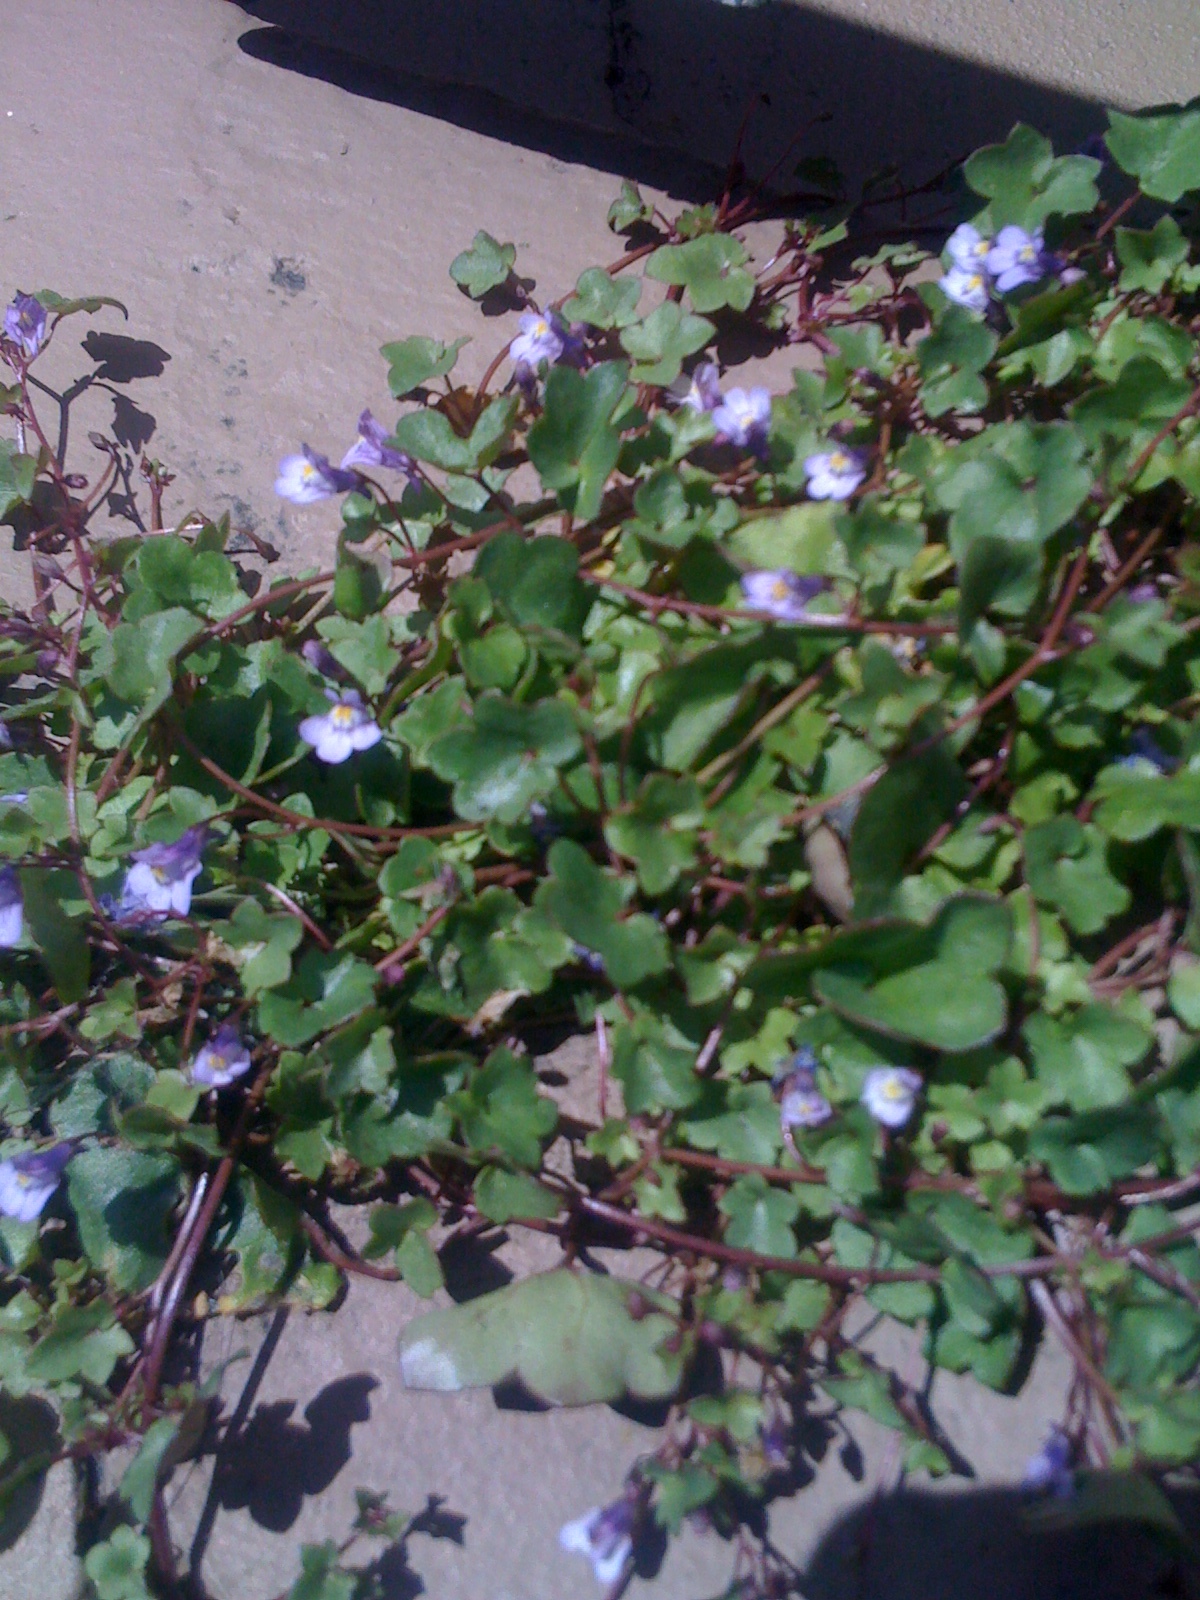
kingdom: Plantae
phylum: Tracheophyta
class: Magnoliopsida
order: Lamiales
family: Plantaginaceae
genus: Cymbalaria
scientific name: Cymbalaria muralis
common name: Ivy-leaved toadflax
